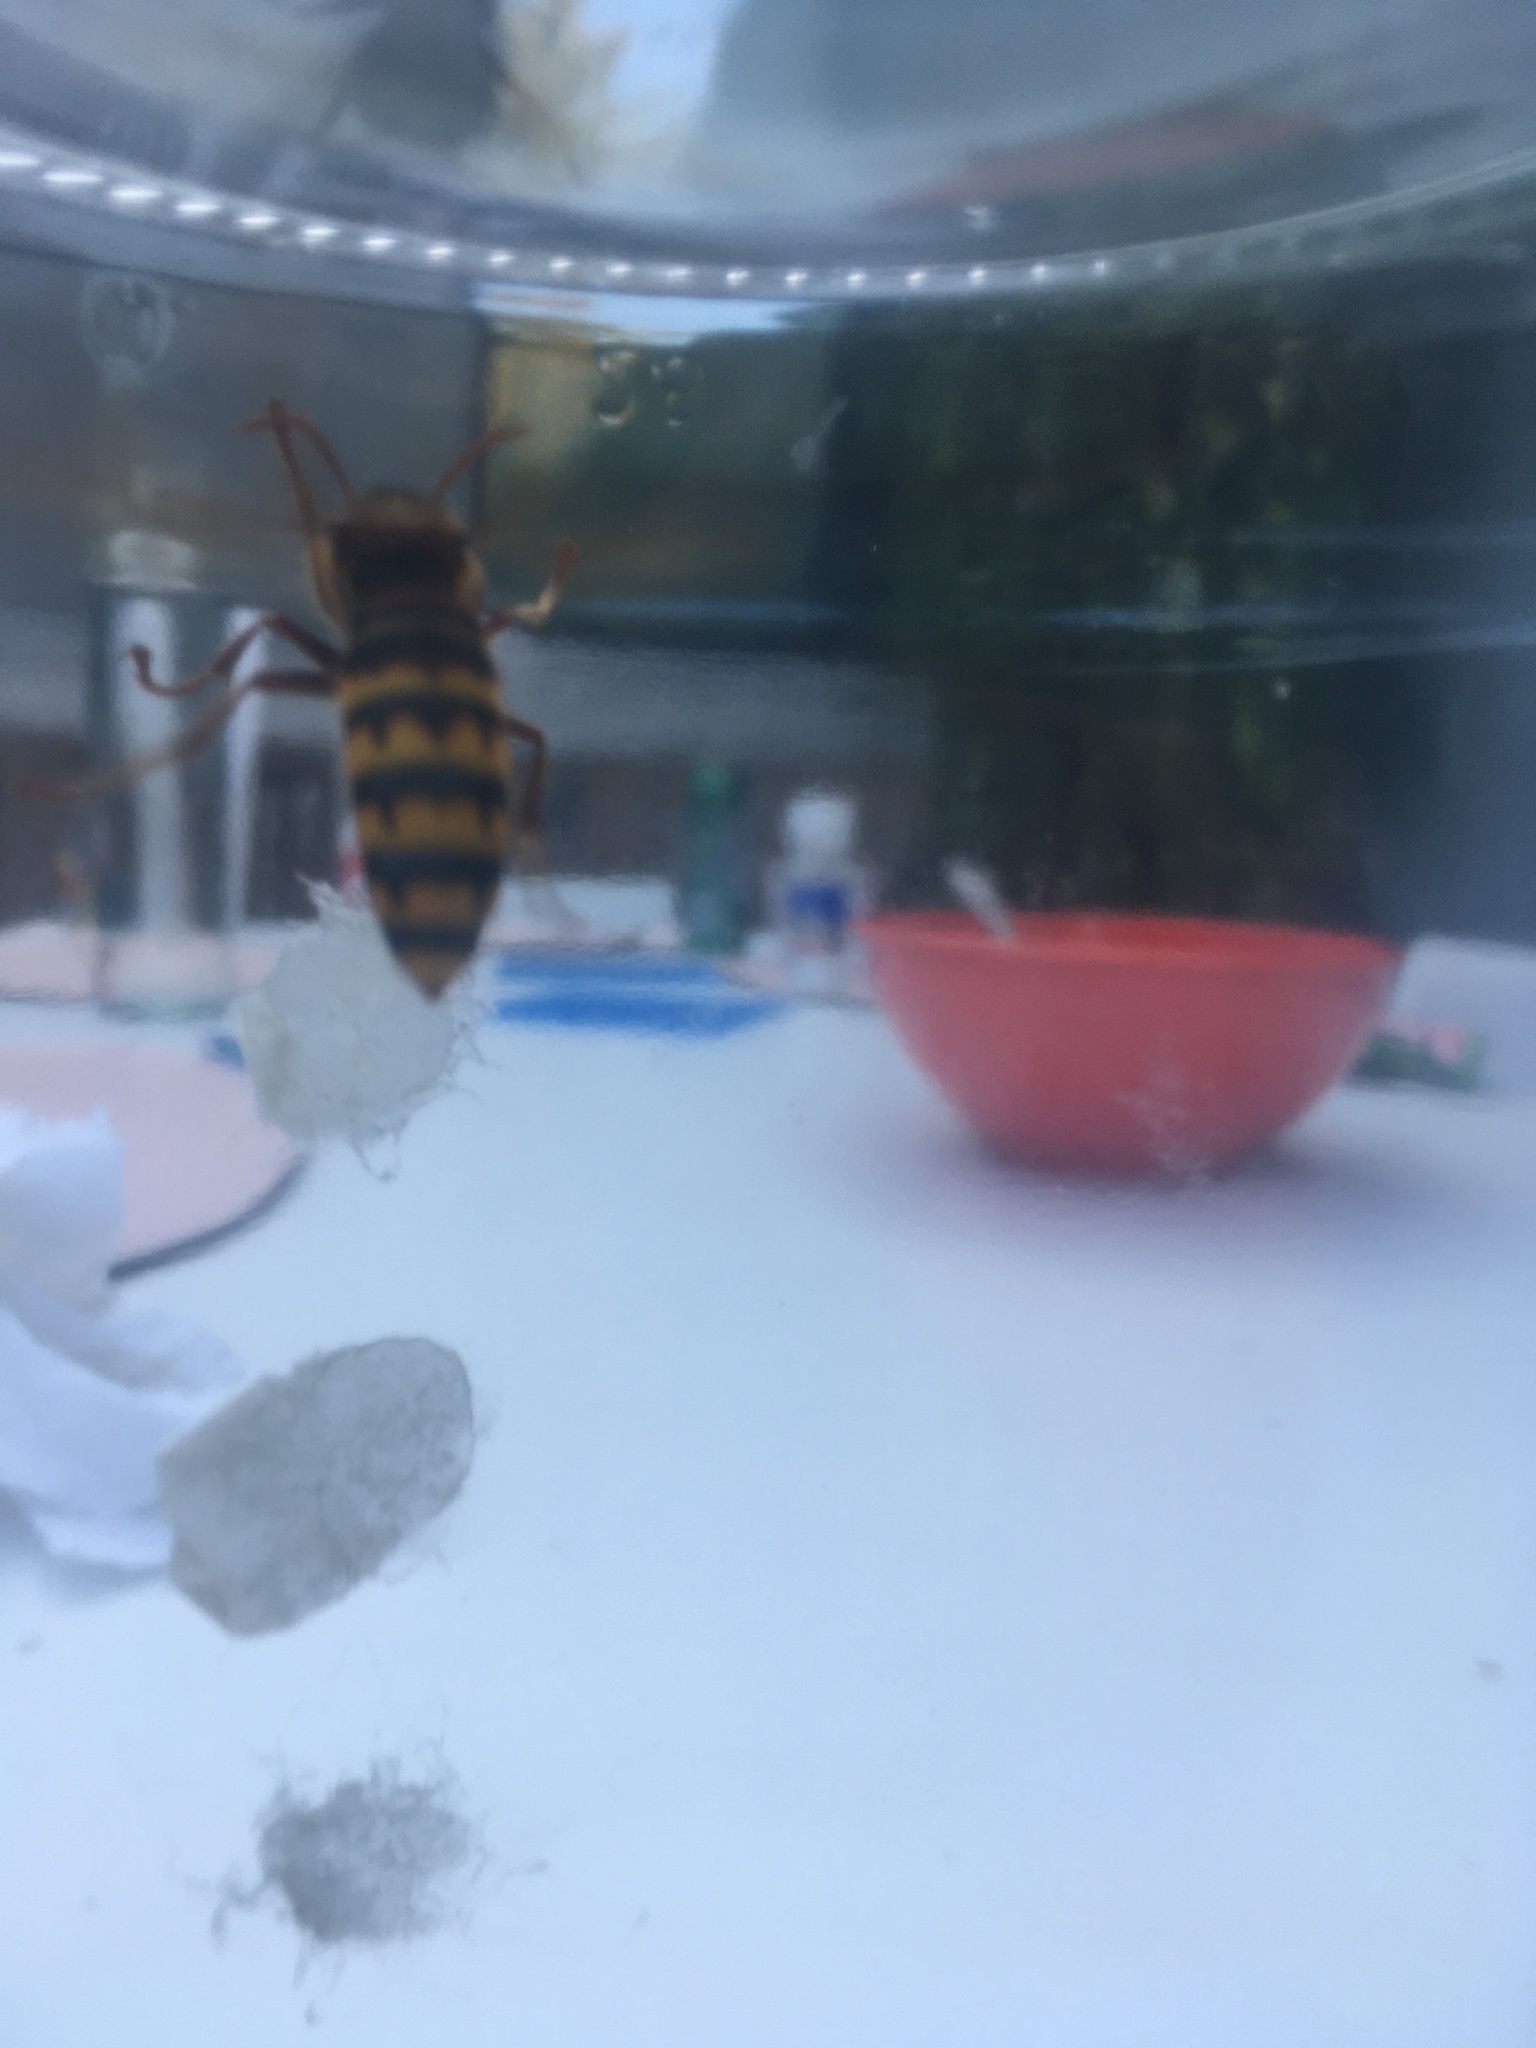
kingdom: Animalia
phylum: Arthropoda
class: Insecta
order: Hymenoptera
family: Vespidae
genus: Vespa
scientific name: Vespa crabro
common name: Hornet
